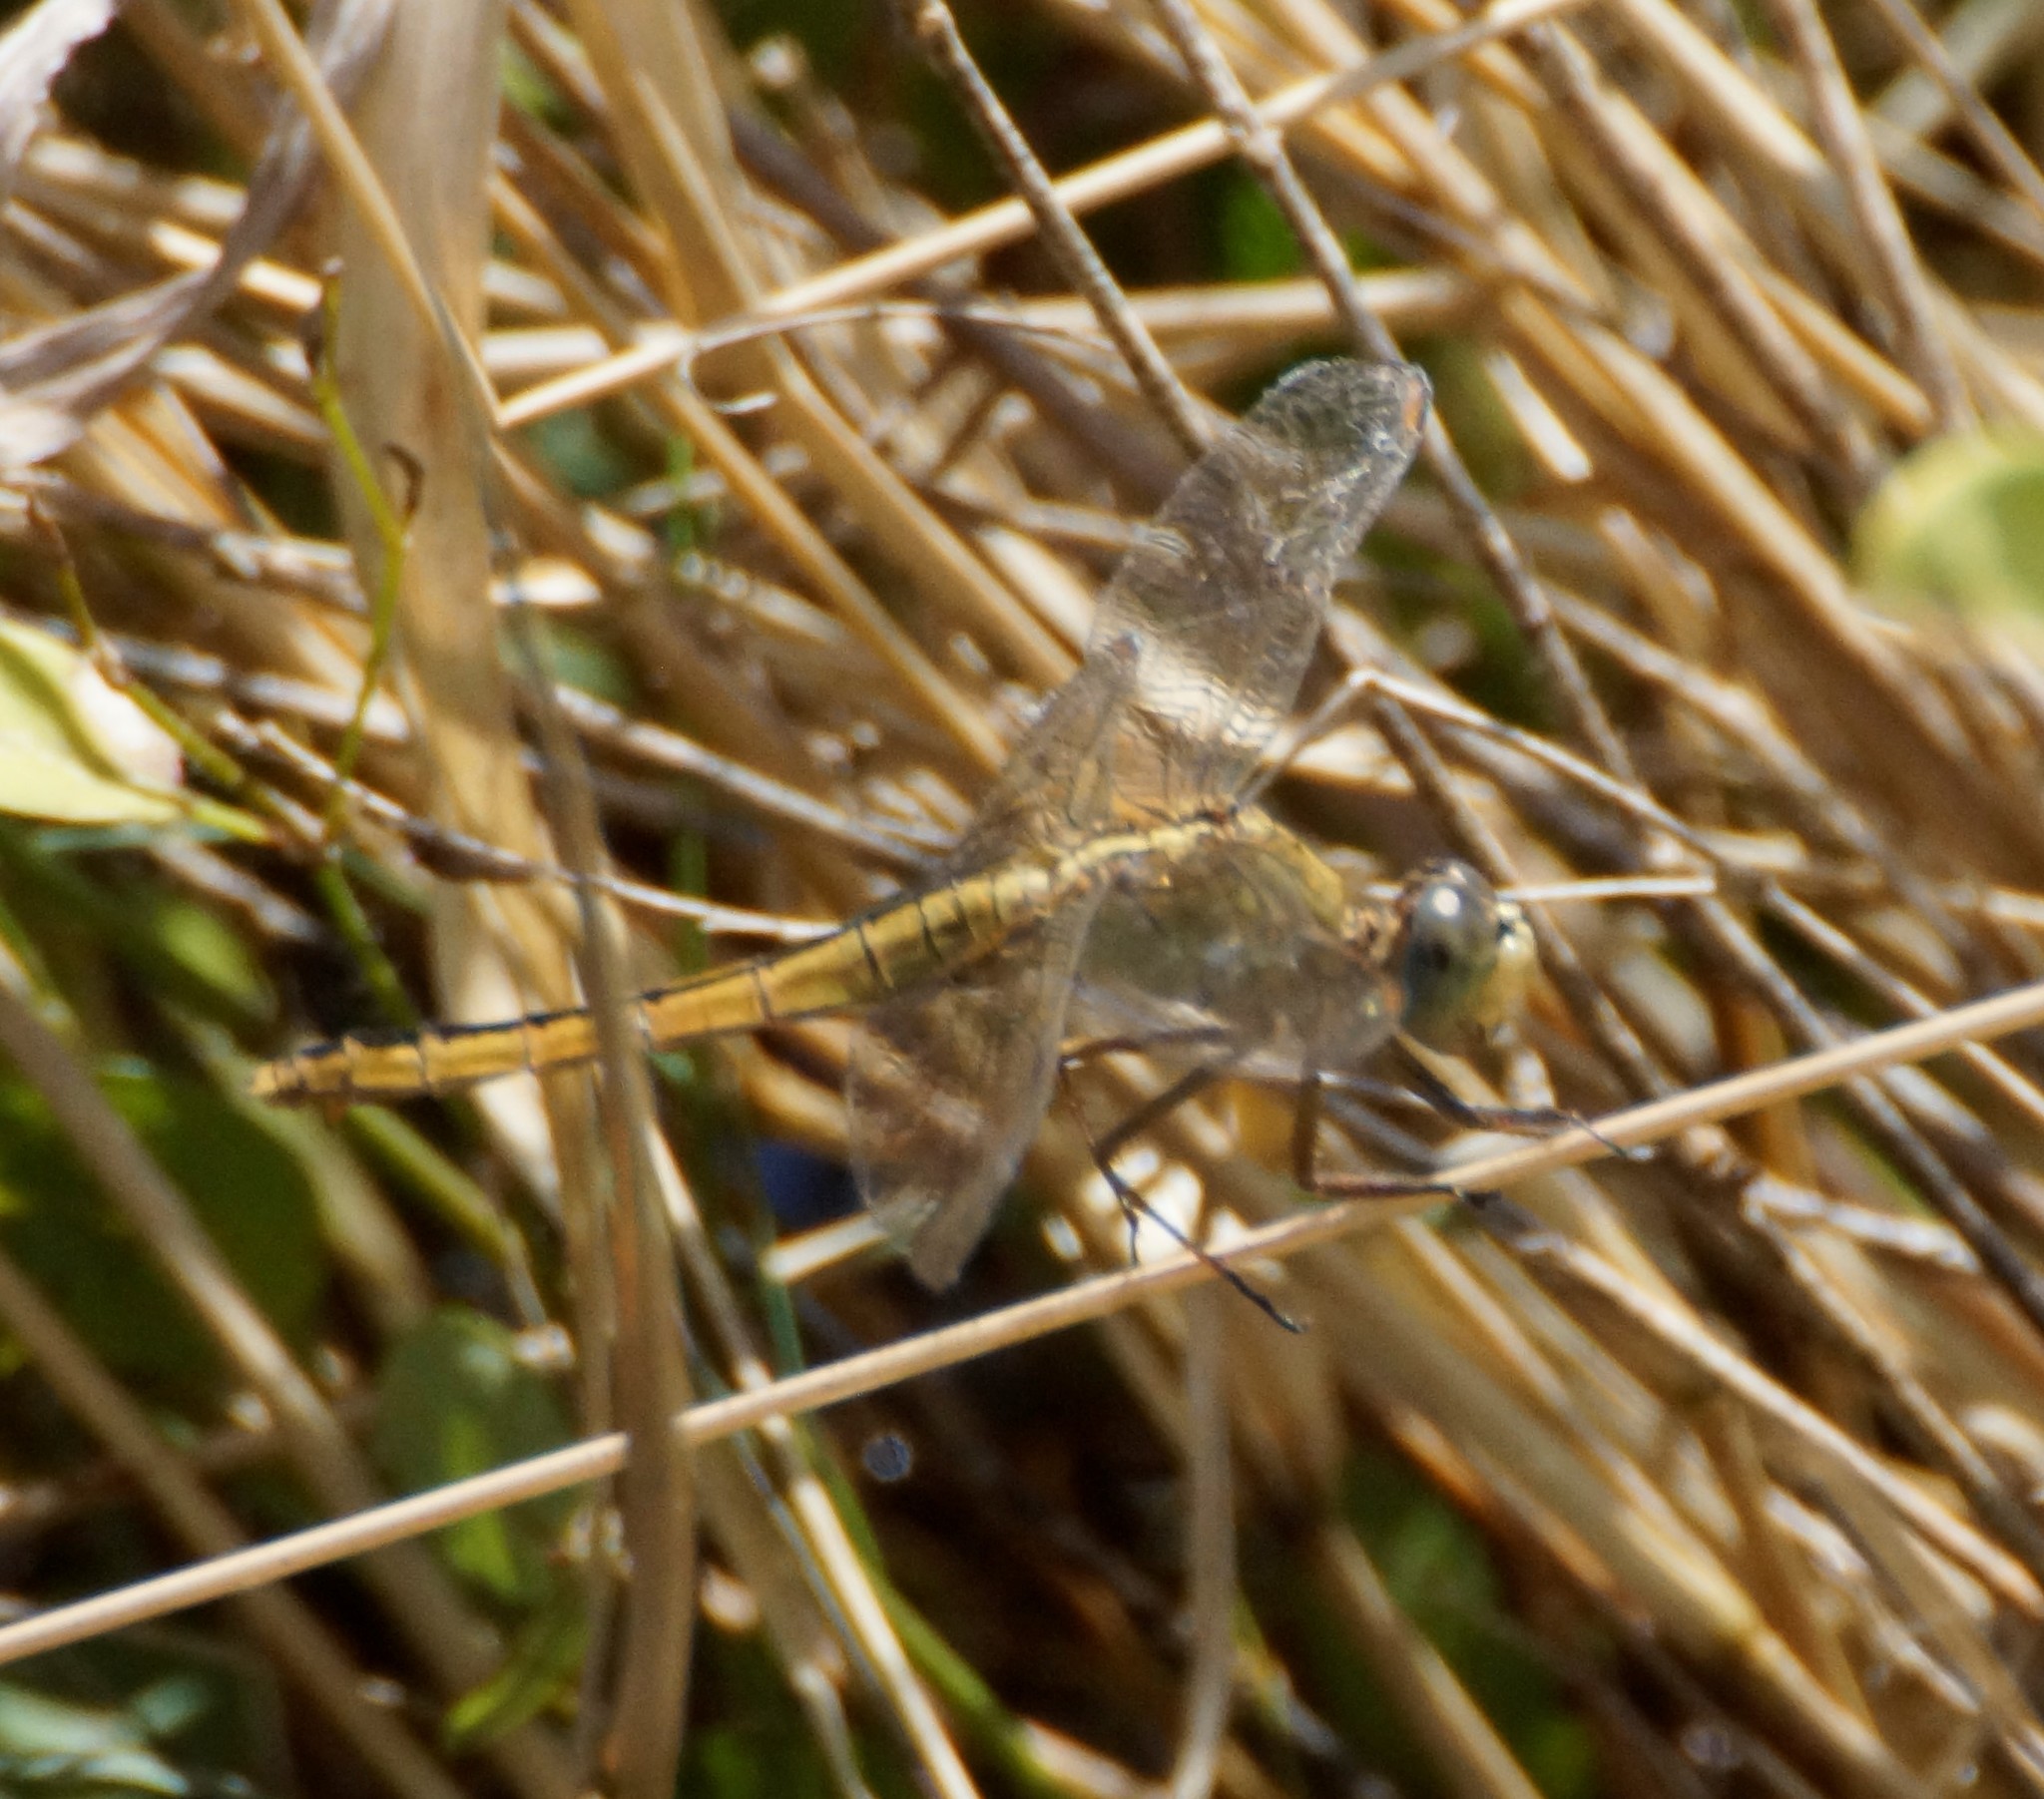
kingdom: Animalia
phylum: Arthropoda
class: Insecta
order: Odonata
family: Libellulidae
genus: Crocothemis
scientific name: Crocothemis nigrifrons
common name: Black-headed skimmer
